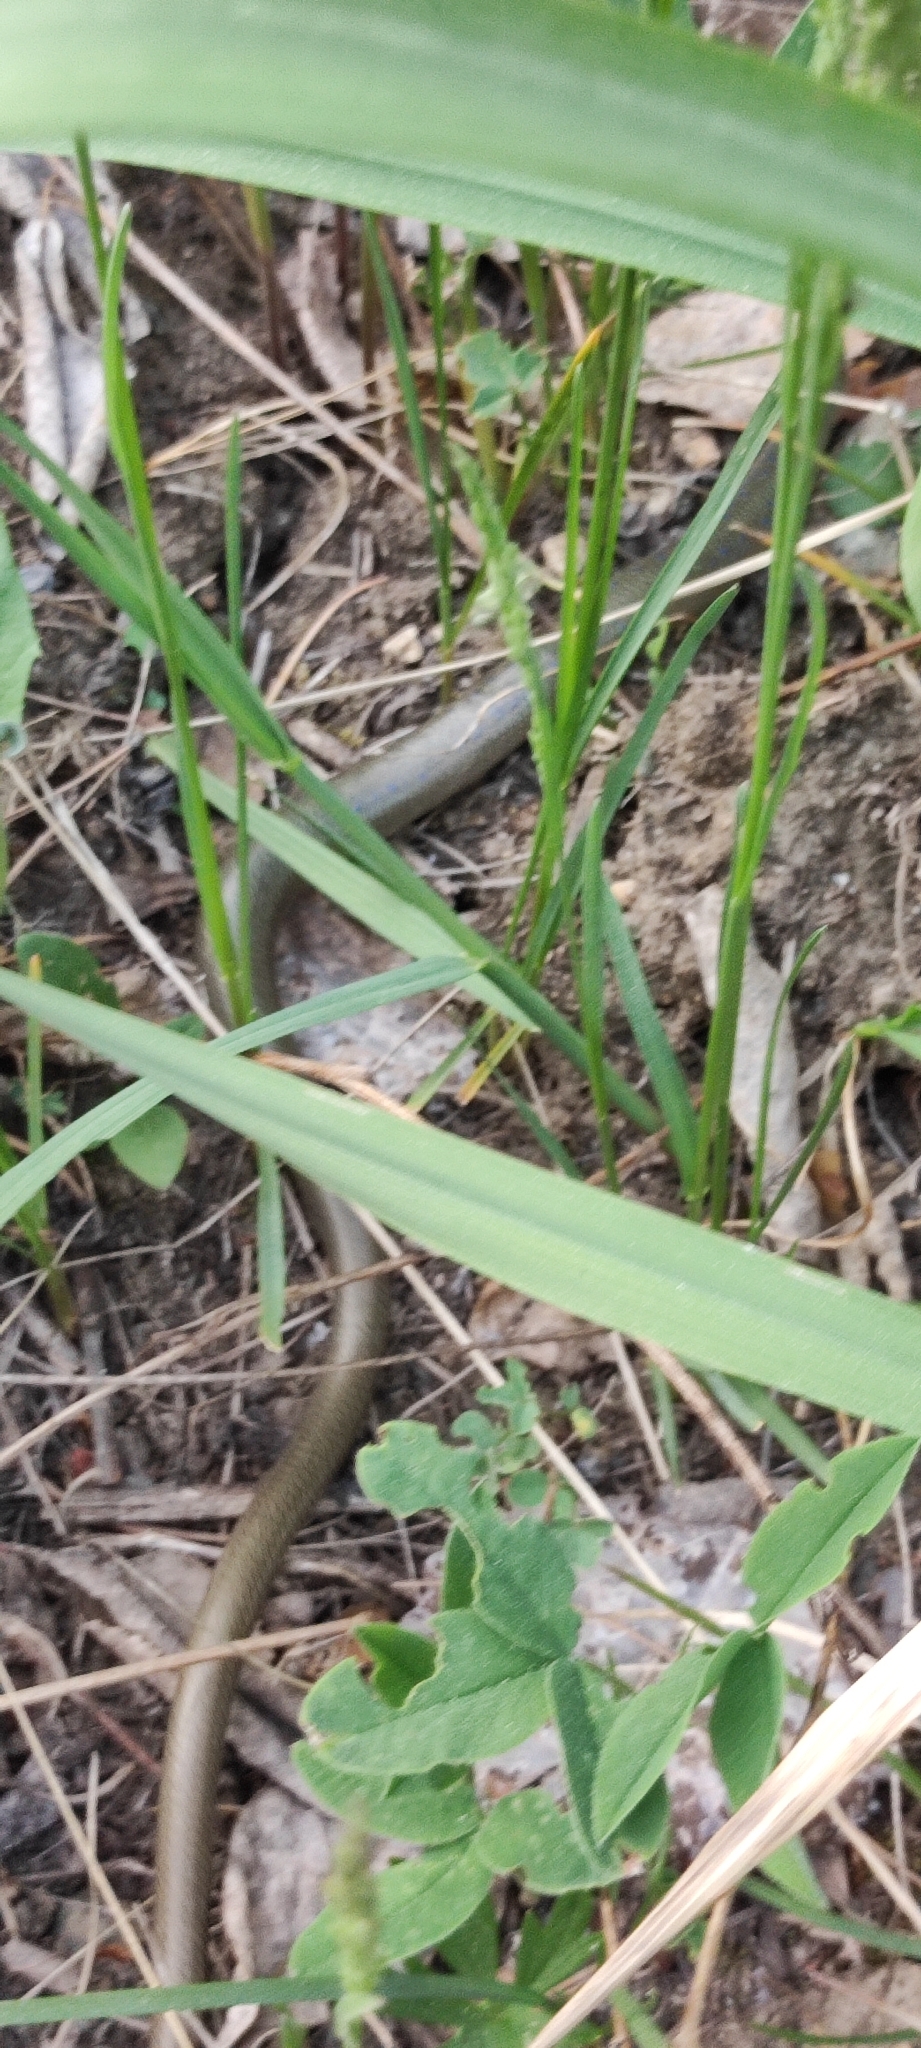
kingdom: Animalia
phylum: Chordata
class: Squamata
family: Anguidae
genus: Anguis
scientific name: Anguis colchica
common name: Slow worm
